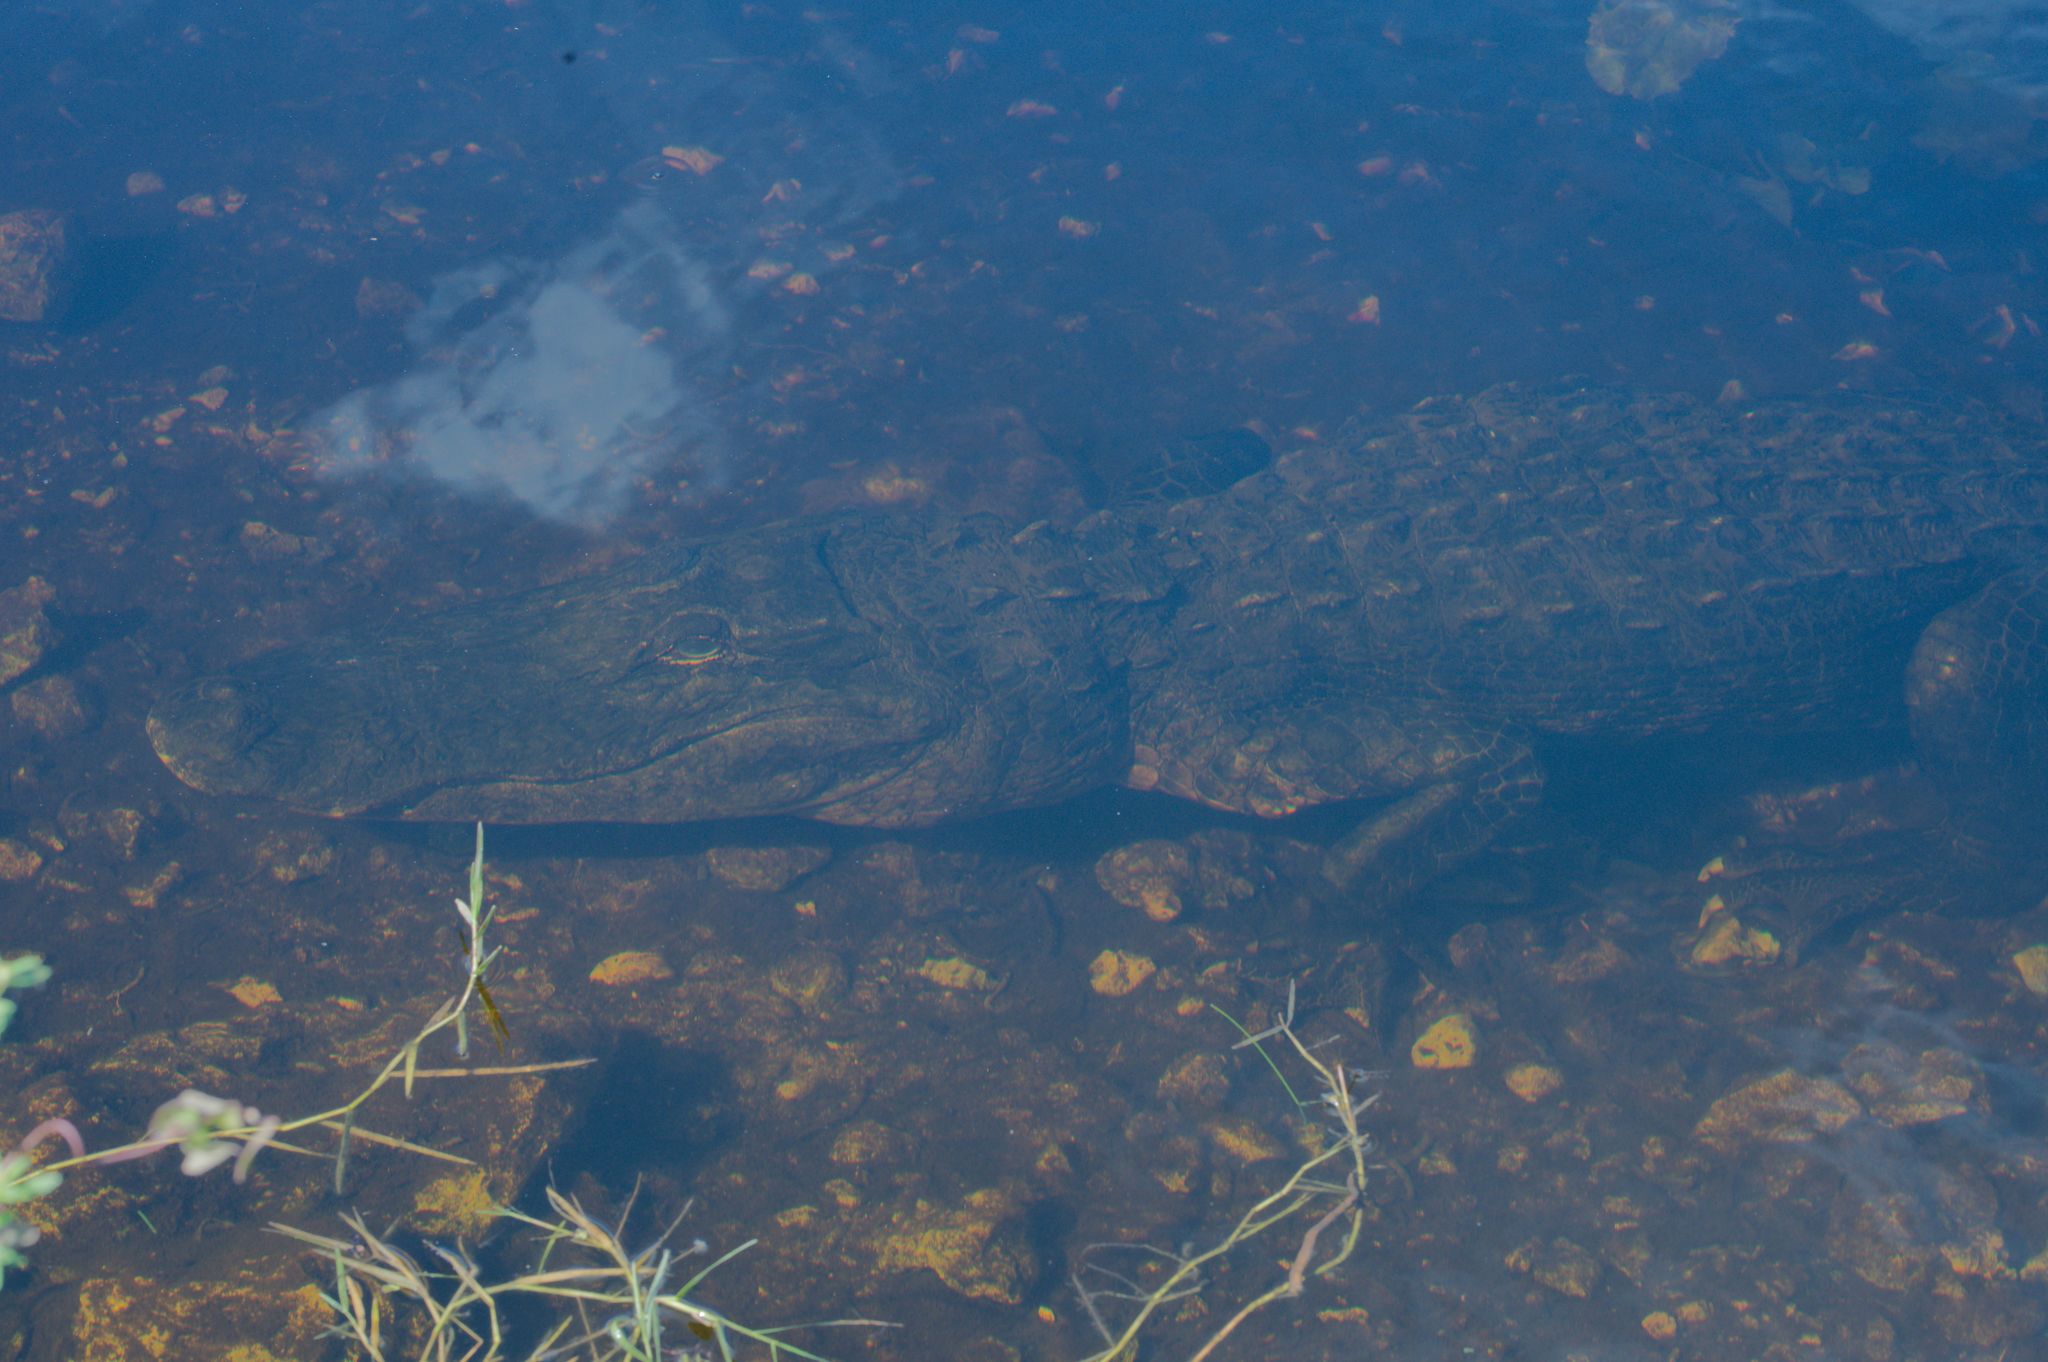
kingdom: Animalia
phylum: Chordata
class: Crocodylia
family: Alligatoridae
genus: Alligator
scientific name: Alligator mississippiensis
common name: American alligator
